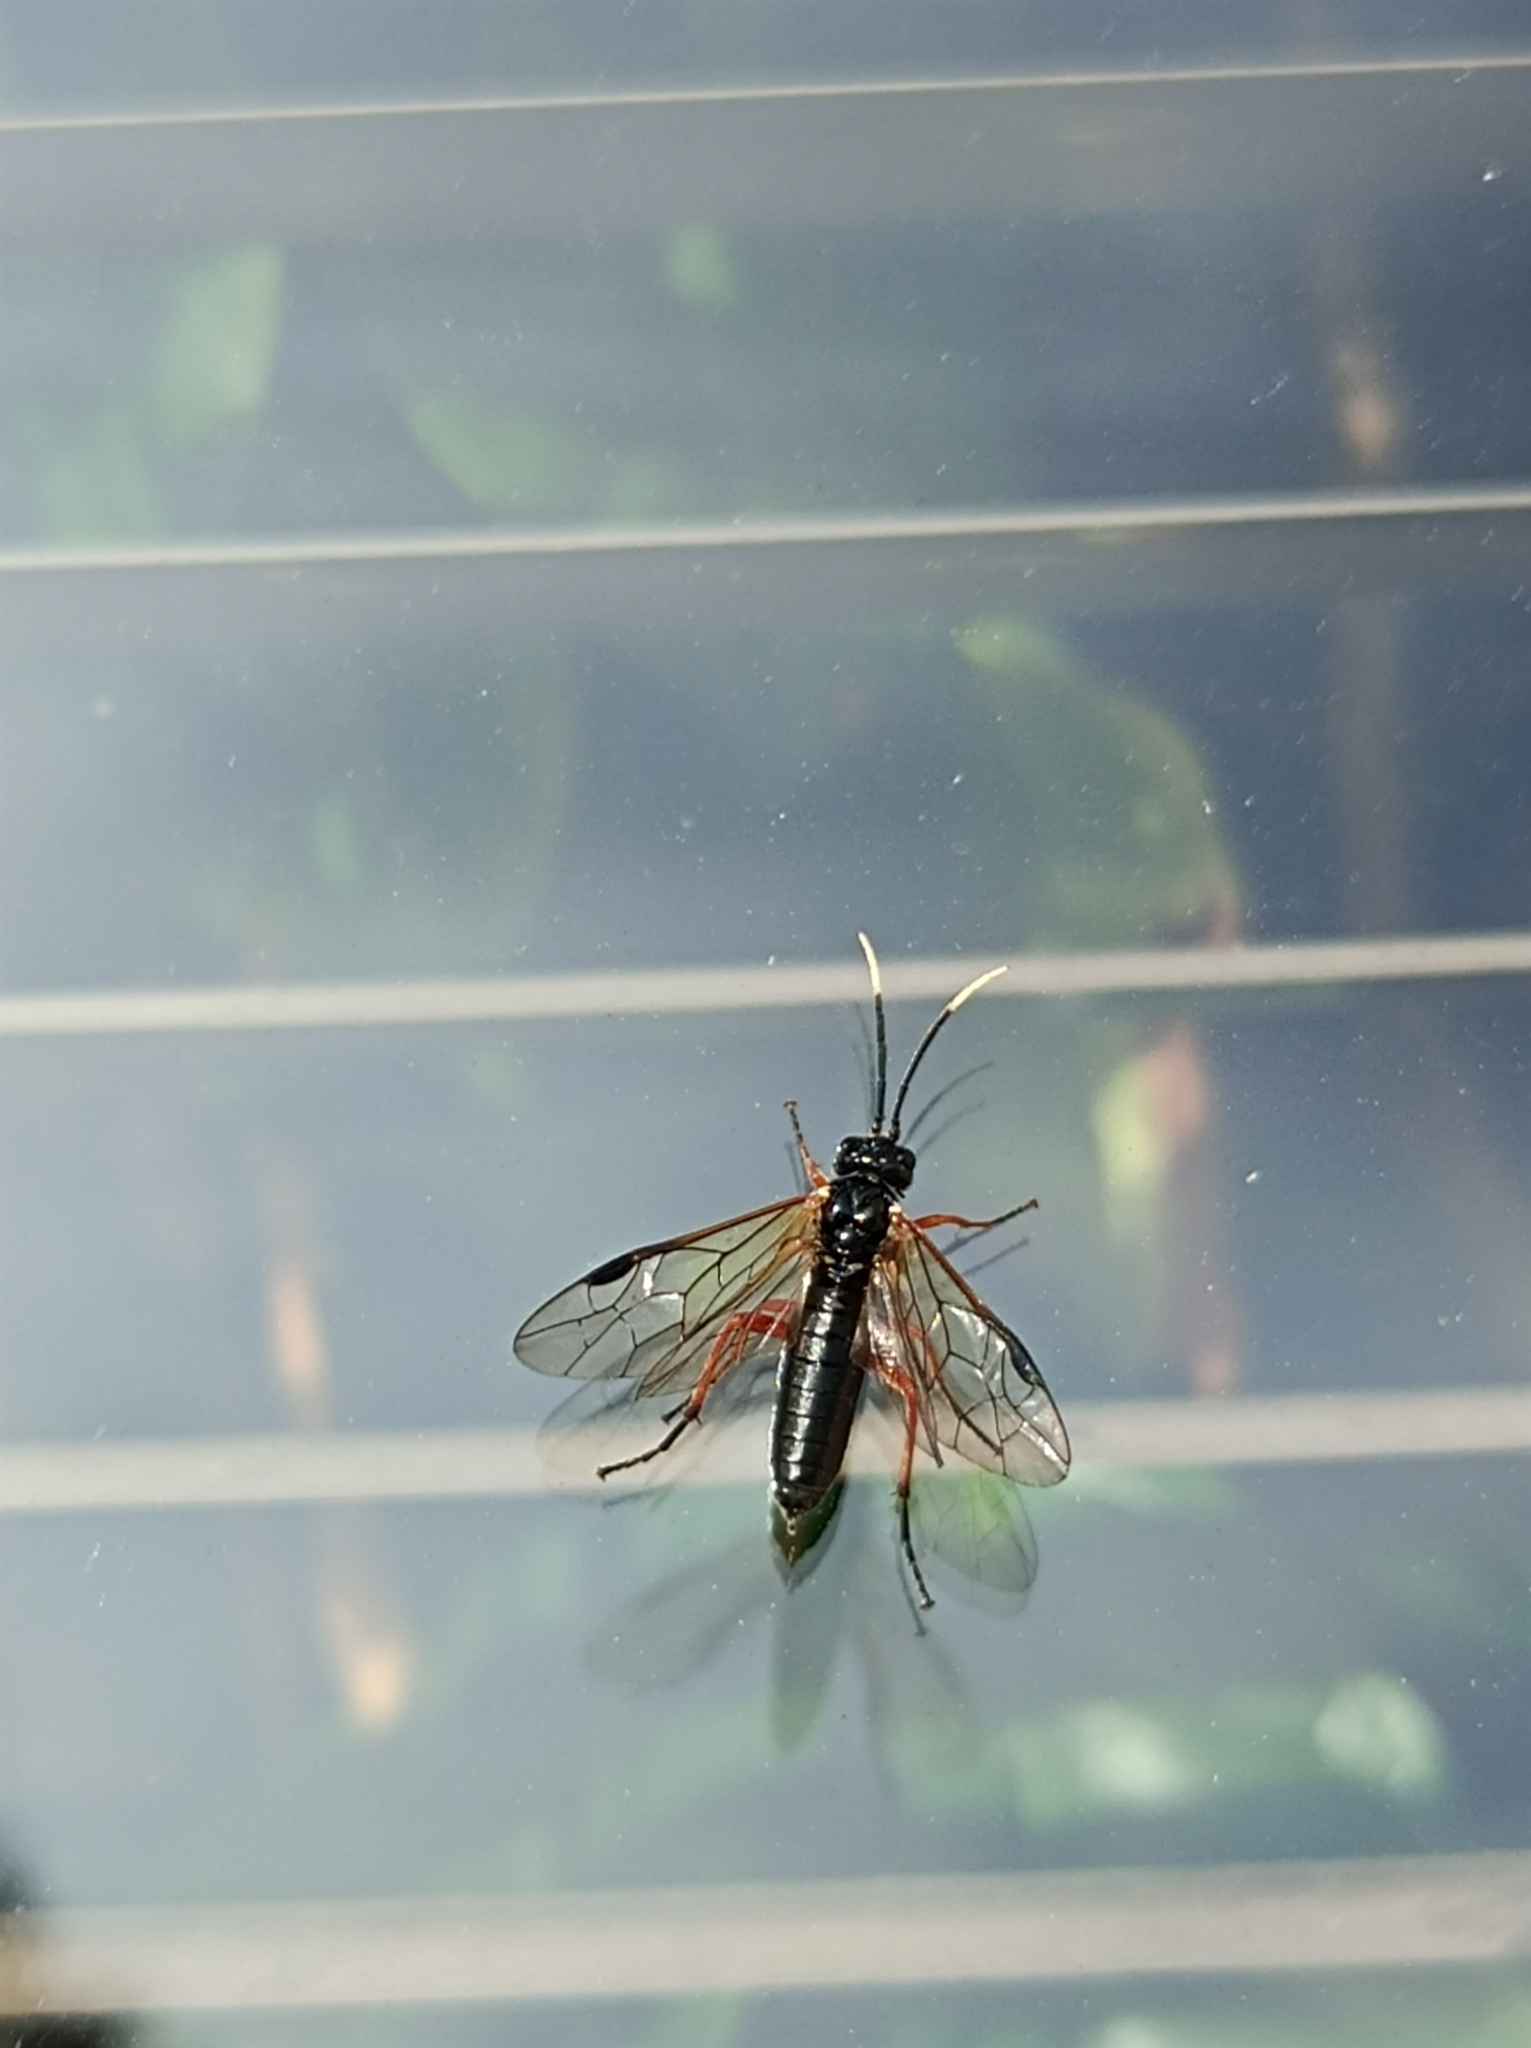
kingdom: Animalia
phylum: Arthropoda
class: Insecta
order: Hymenoptera
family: Tenthredinidae
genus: Apethymus
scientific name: Apethymus apicalis
